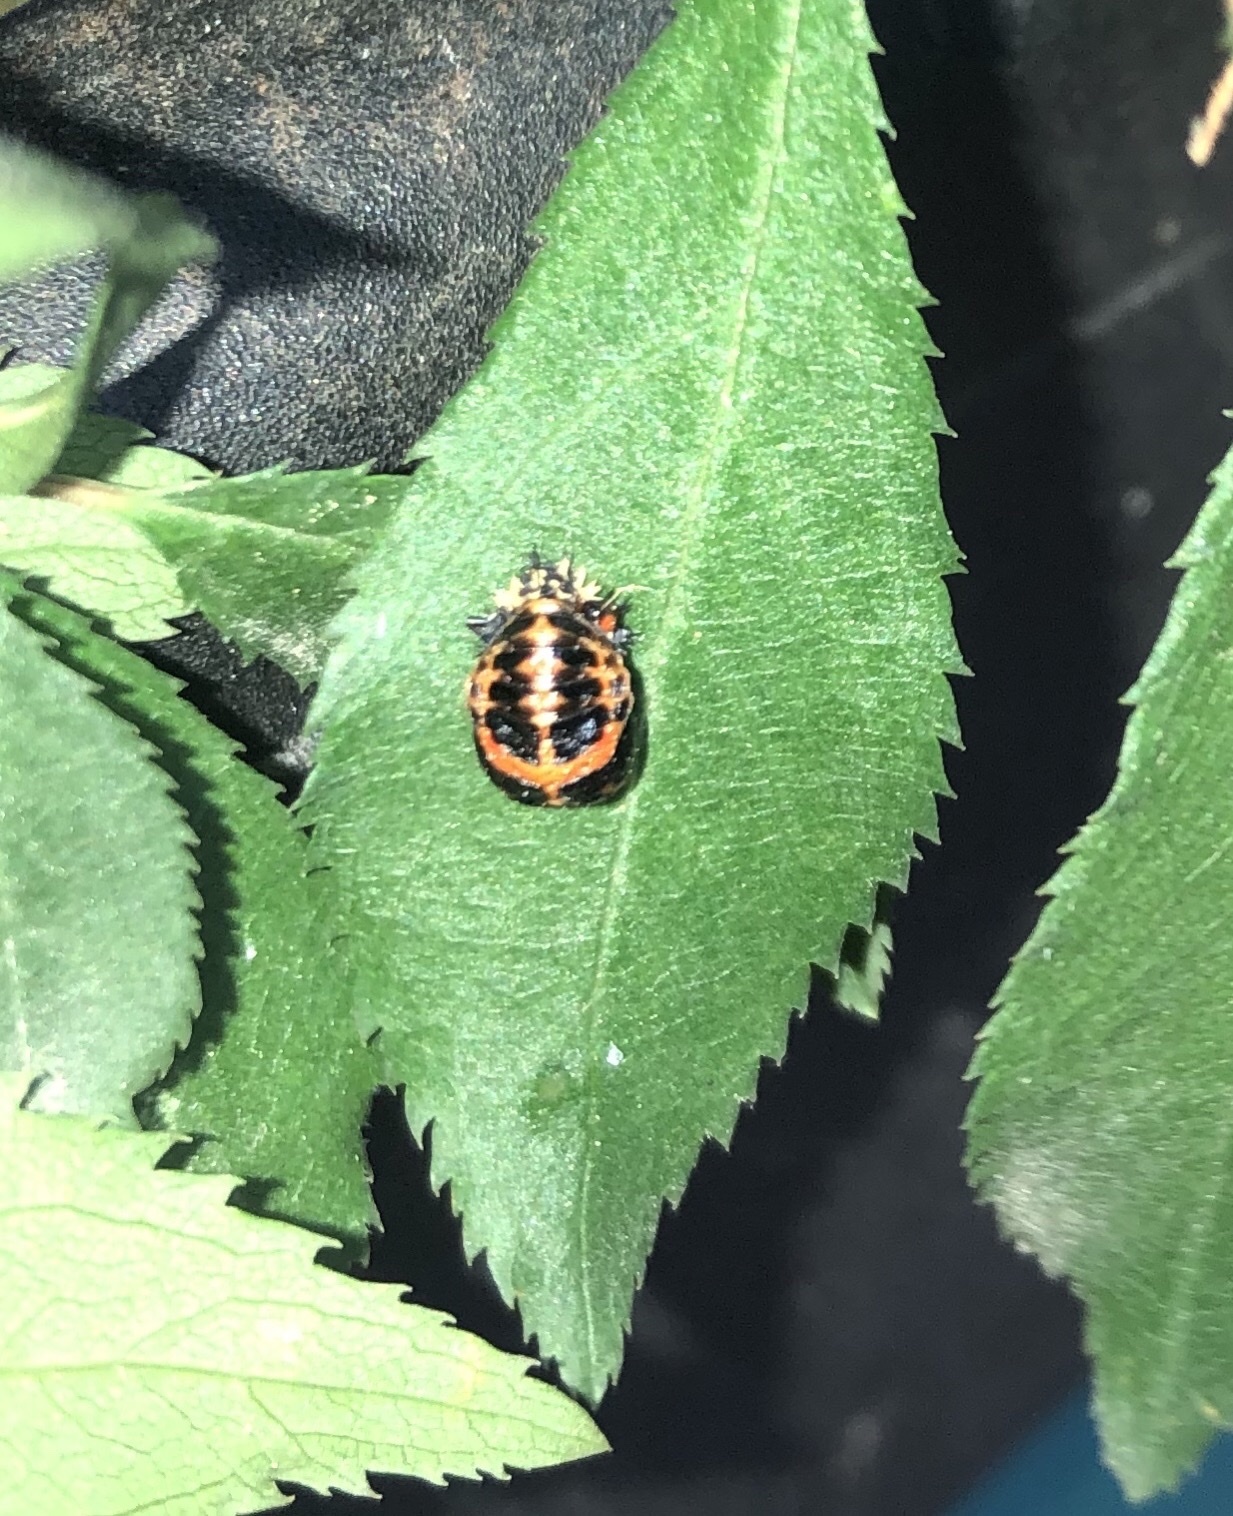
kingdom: Animalia
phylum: Arthropoda
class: Insecta
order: Coleoptera
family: Coccinellidae
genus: Harmonia
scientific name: Harmonia axyridis
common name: Harlequin ladybird
